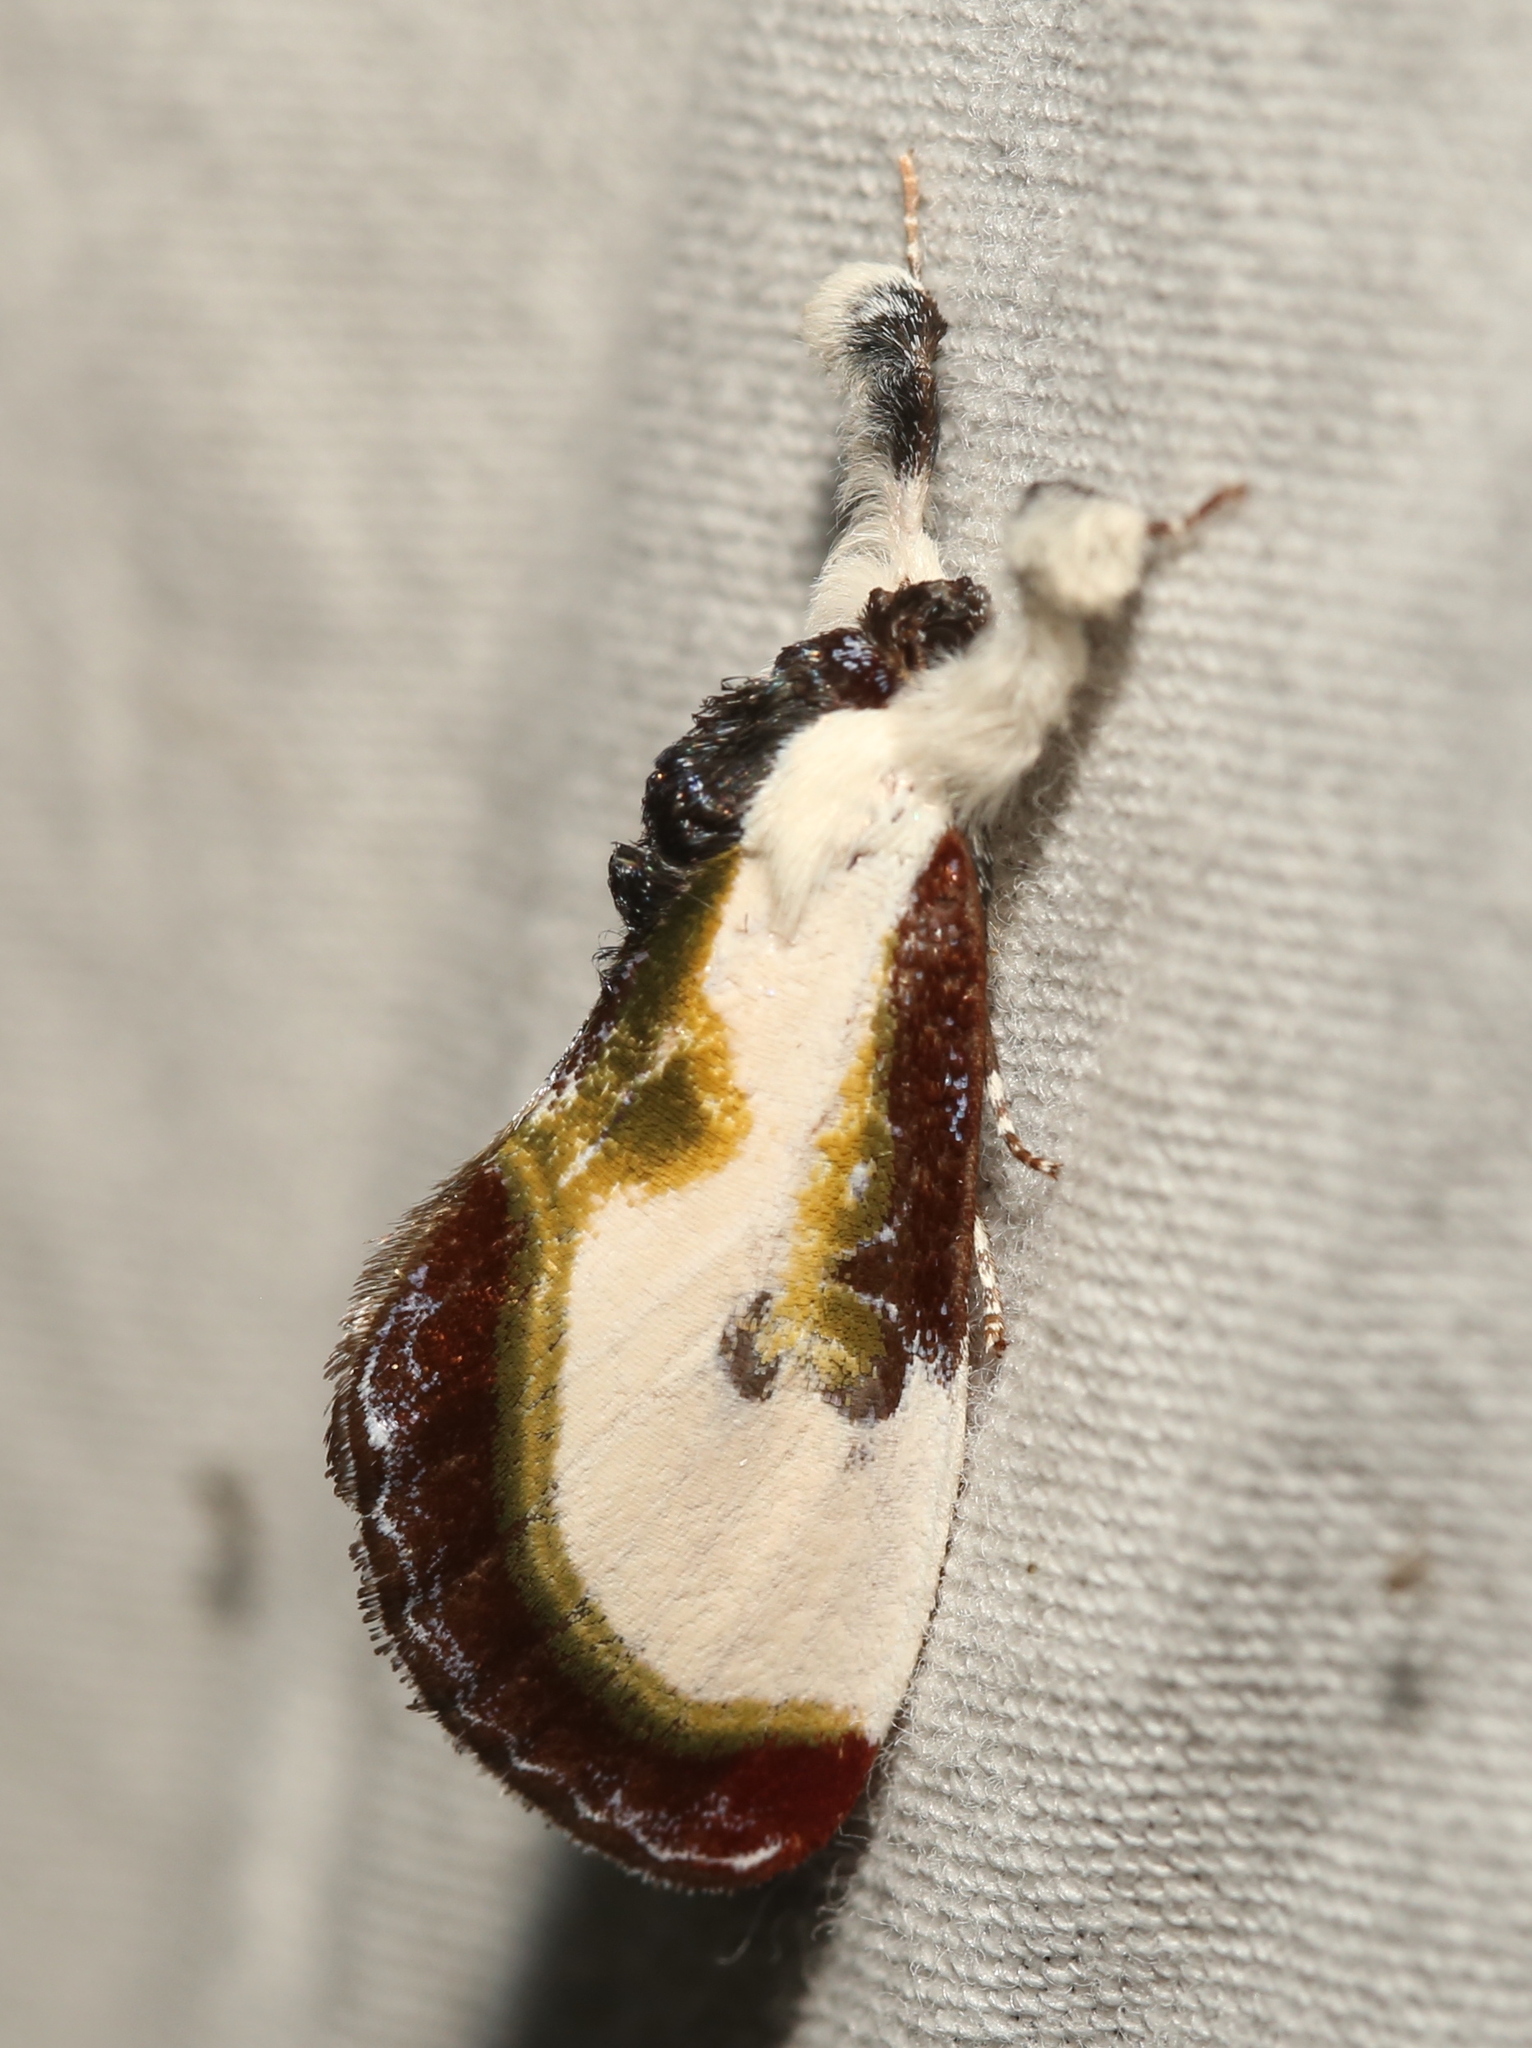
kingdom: Animalia
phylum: Arthropoda
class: Insecta
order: Lepidoptera
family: Noctuidae
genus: Eudryas
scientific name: Eudryas grata
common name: Beautiful wood-nymph
